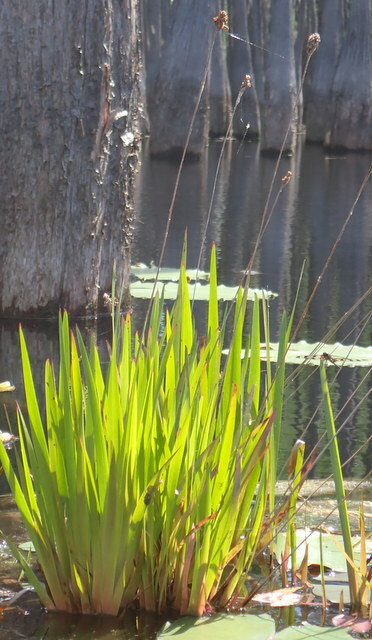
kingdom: Plantae
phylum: Tracheophyta
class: Liliopsida
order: Poales
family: Xyridaceae
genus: Xyris
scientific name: Xyris fimbriata
